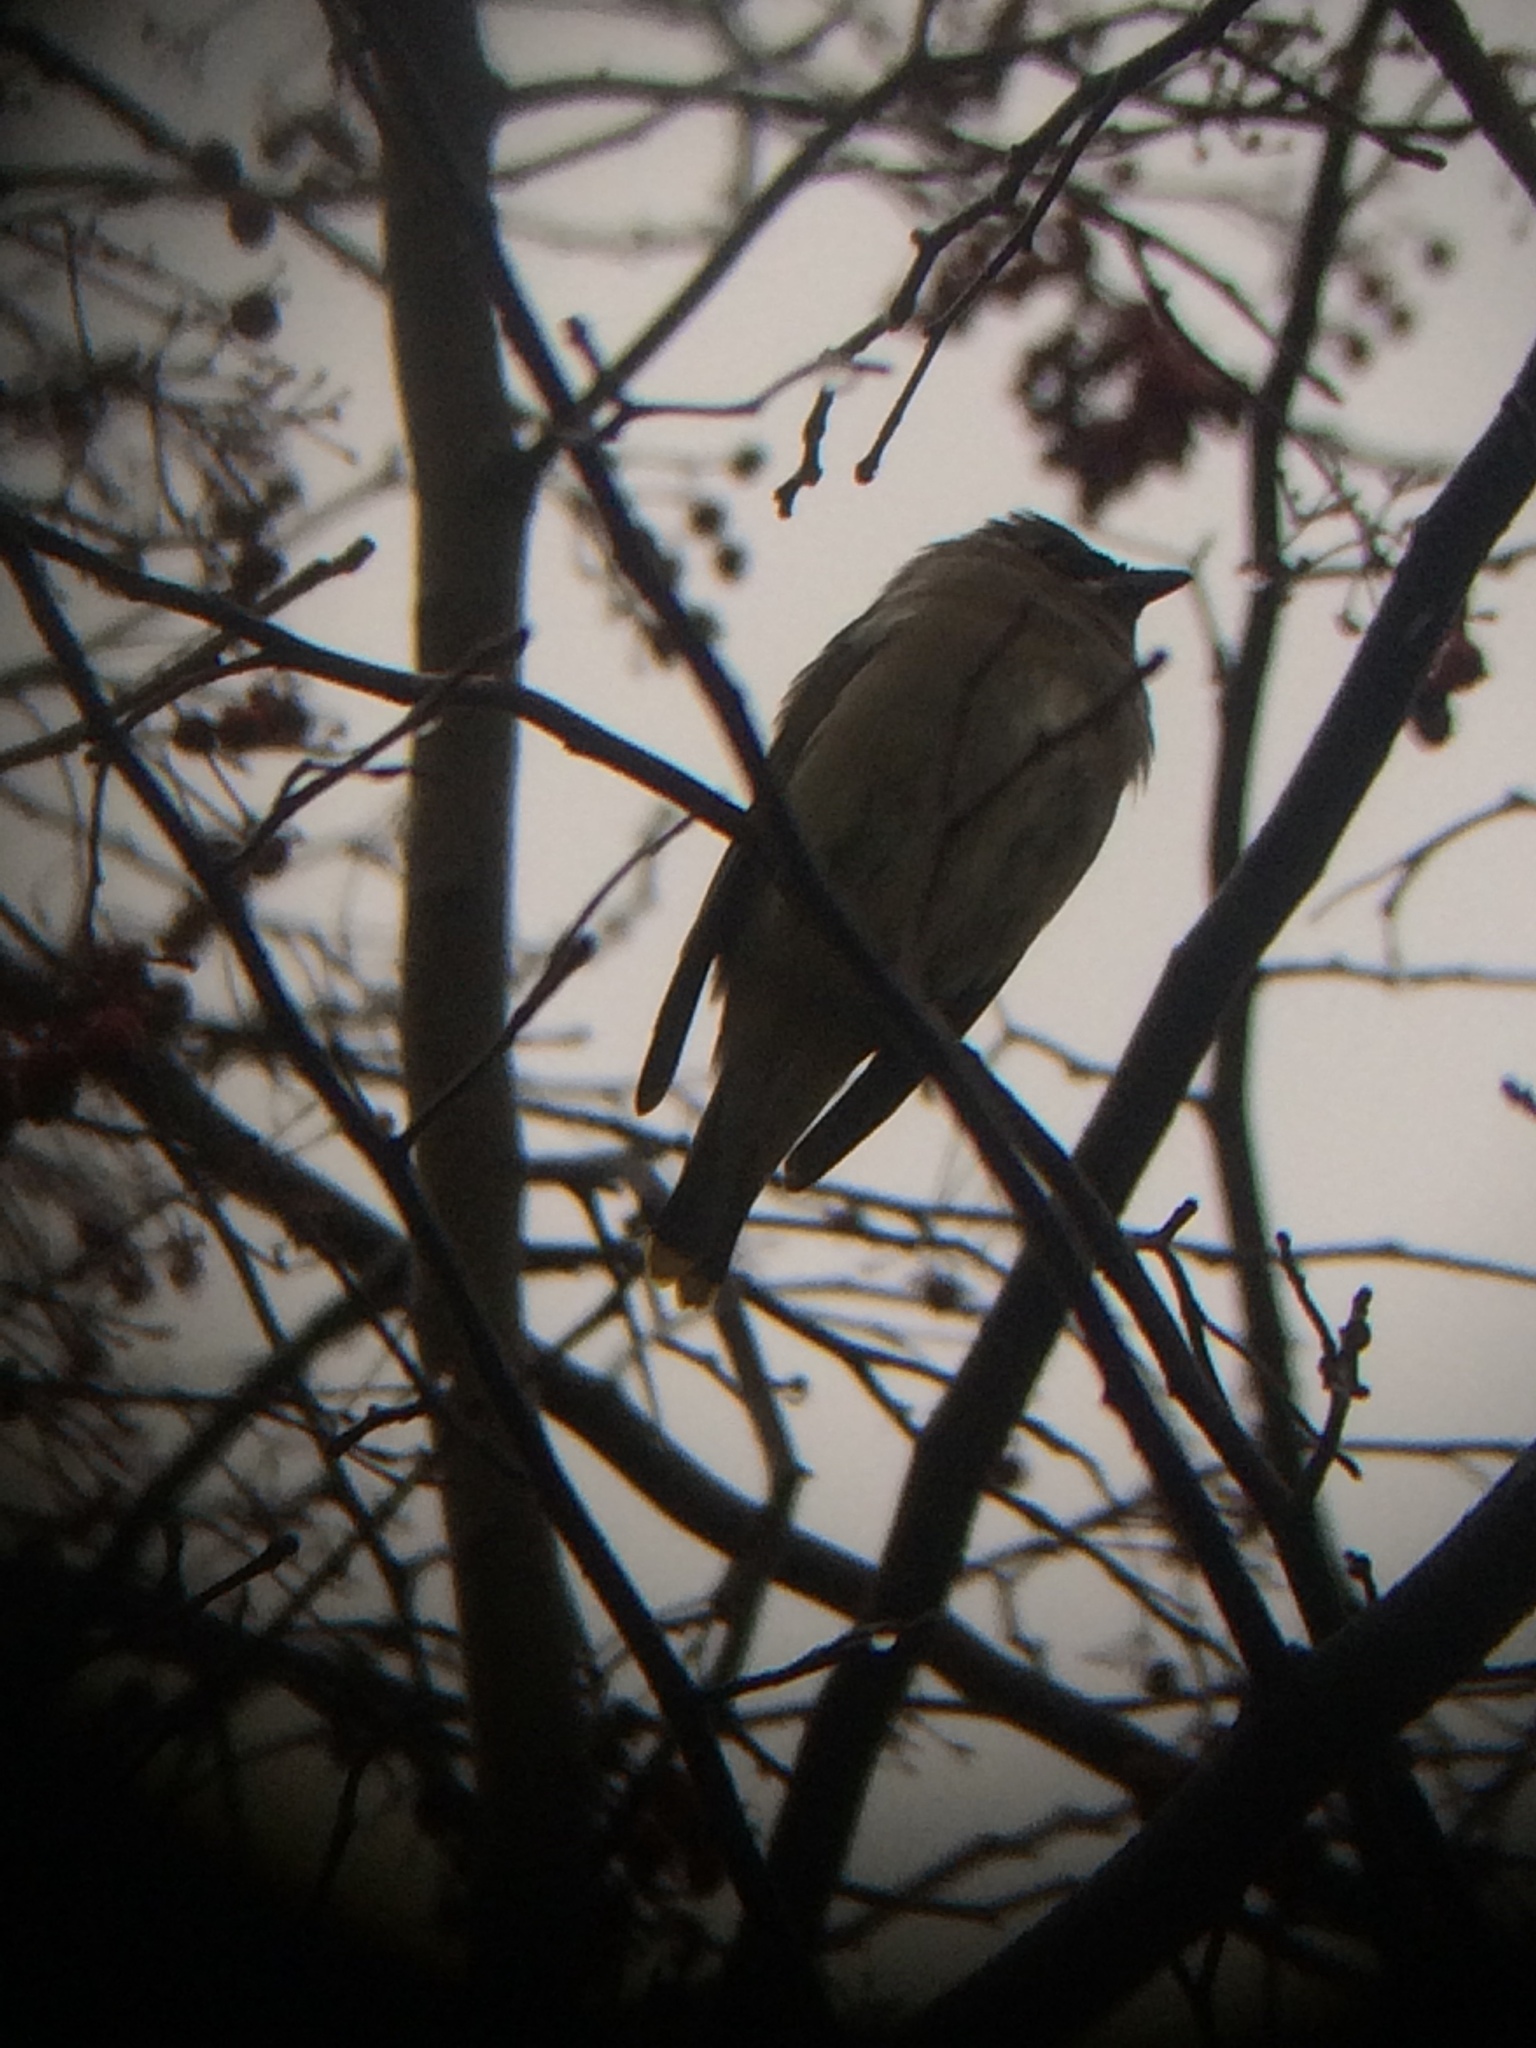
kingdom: Animalia
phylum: Chordata
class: Aves
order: Passeriformes
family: Bombycillidae
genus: Bombycilla
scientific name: Bombycilla cedrorum
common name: Cedar waxwing
